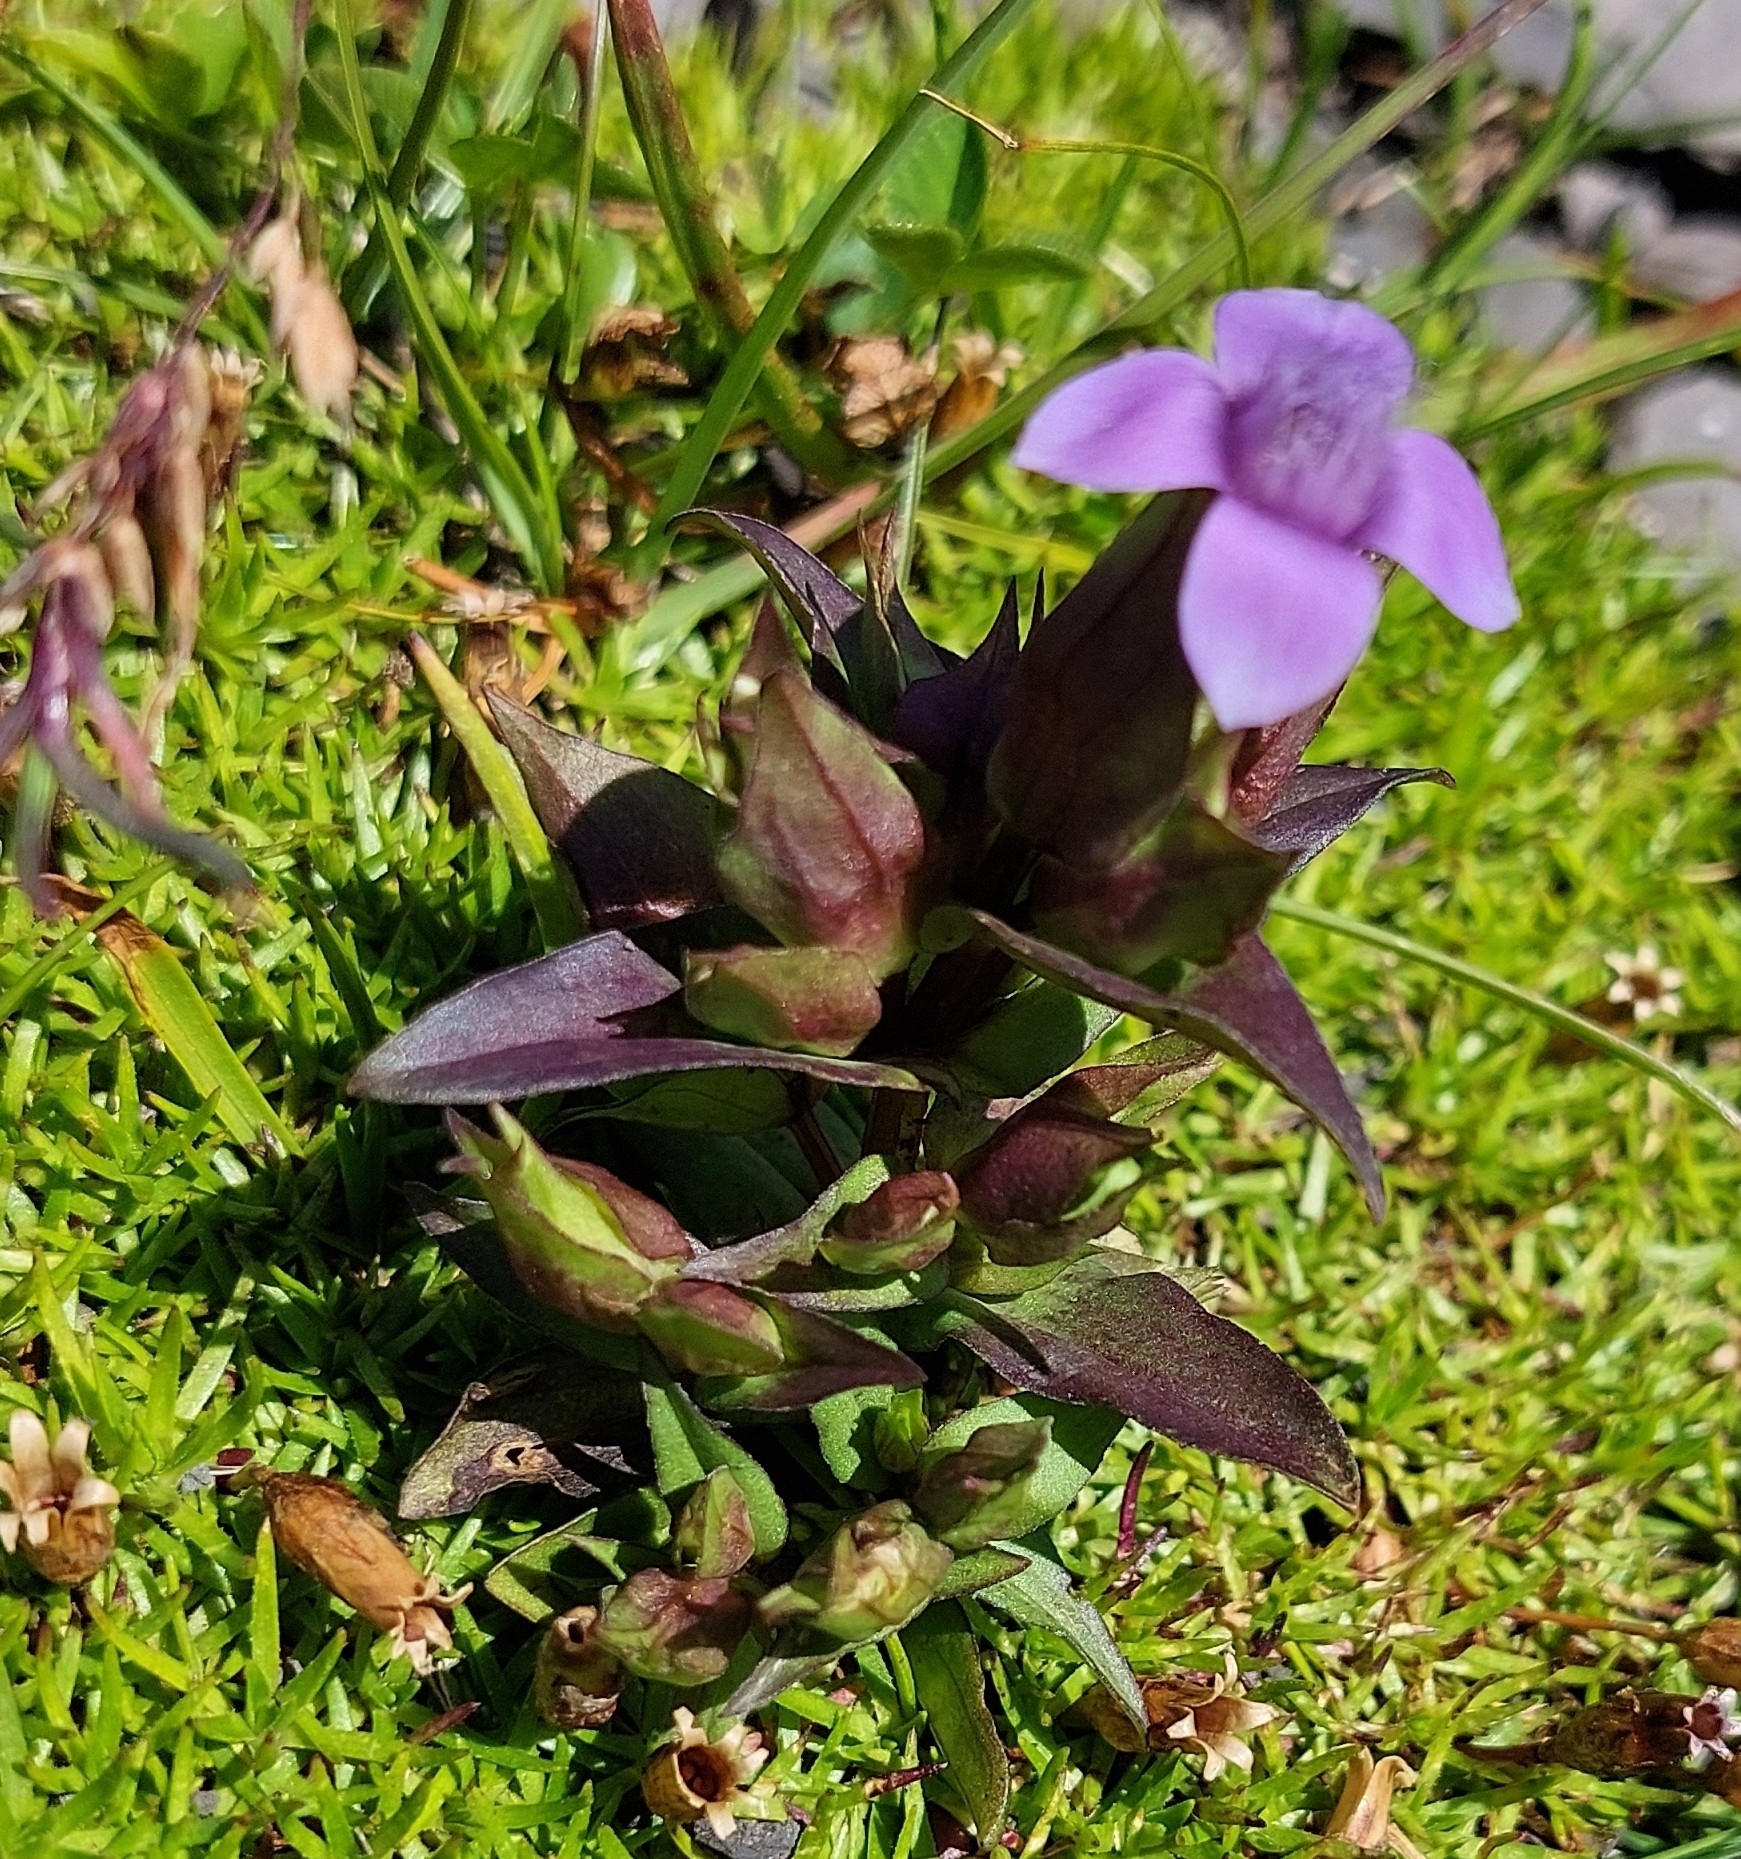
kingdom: Plantae
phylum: Tracheophyta
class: Magnoliopsida
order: Gentianales
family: Gentianaceae
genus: Gentianella
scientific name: Gentianella campestris
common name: Field gentian
